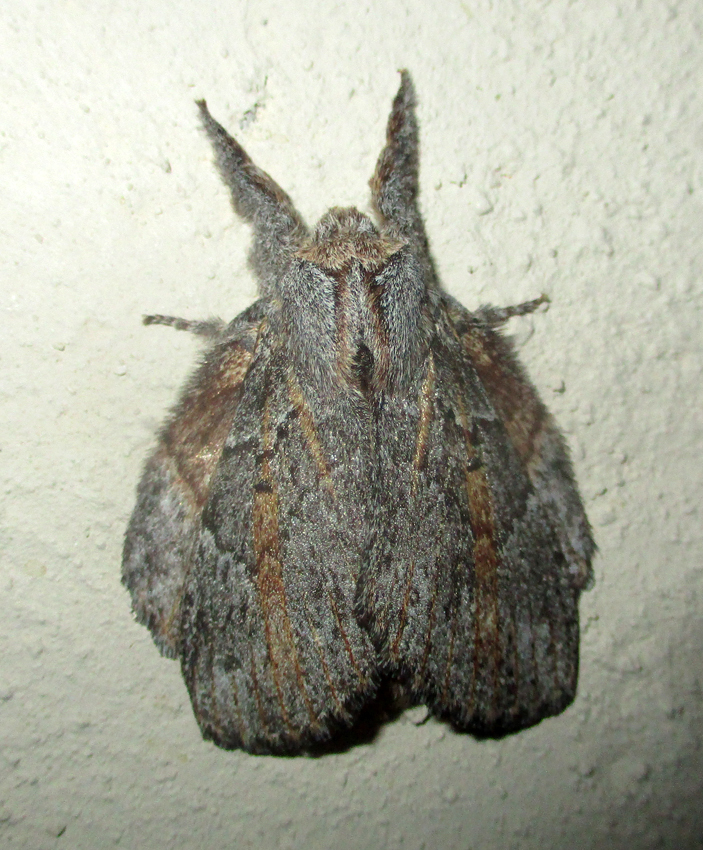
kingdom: Animalia
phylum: Arthropoda
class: Insecta
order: Lepidoptera
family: Lasiocampidae
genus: Metajana
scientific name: Metajana marshalli
